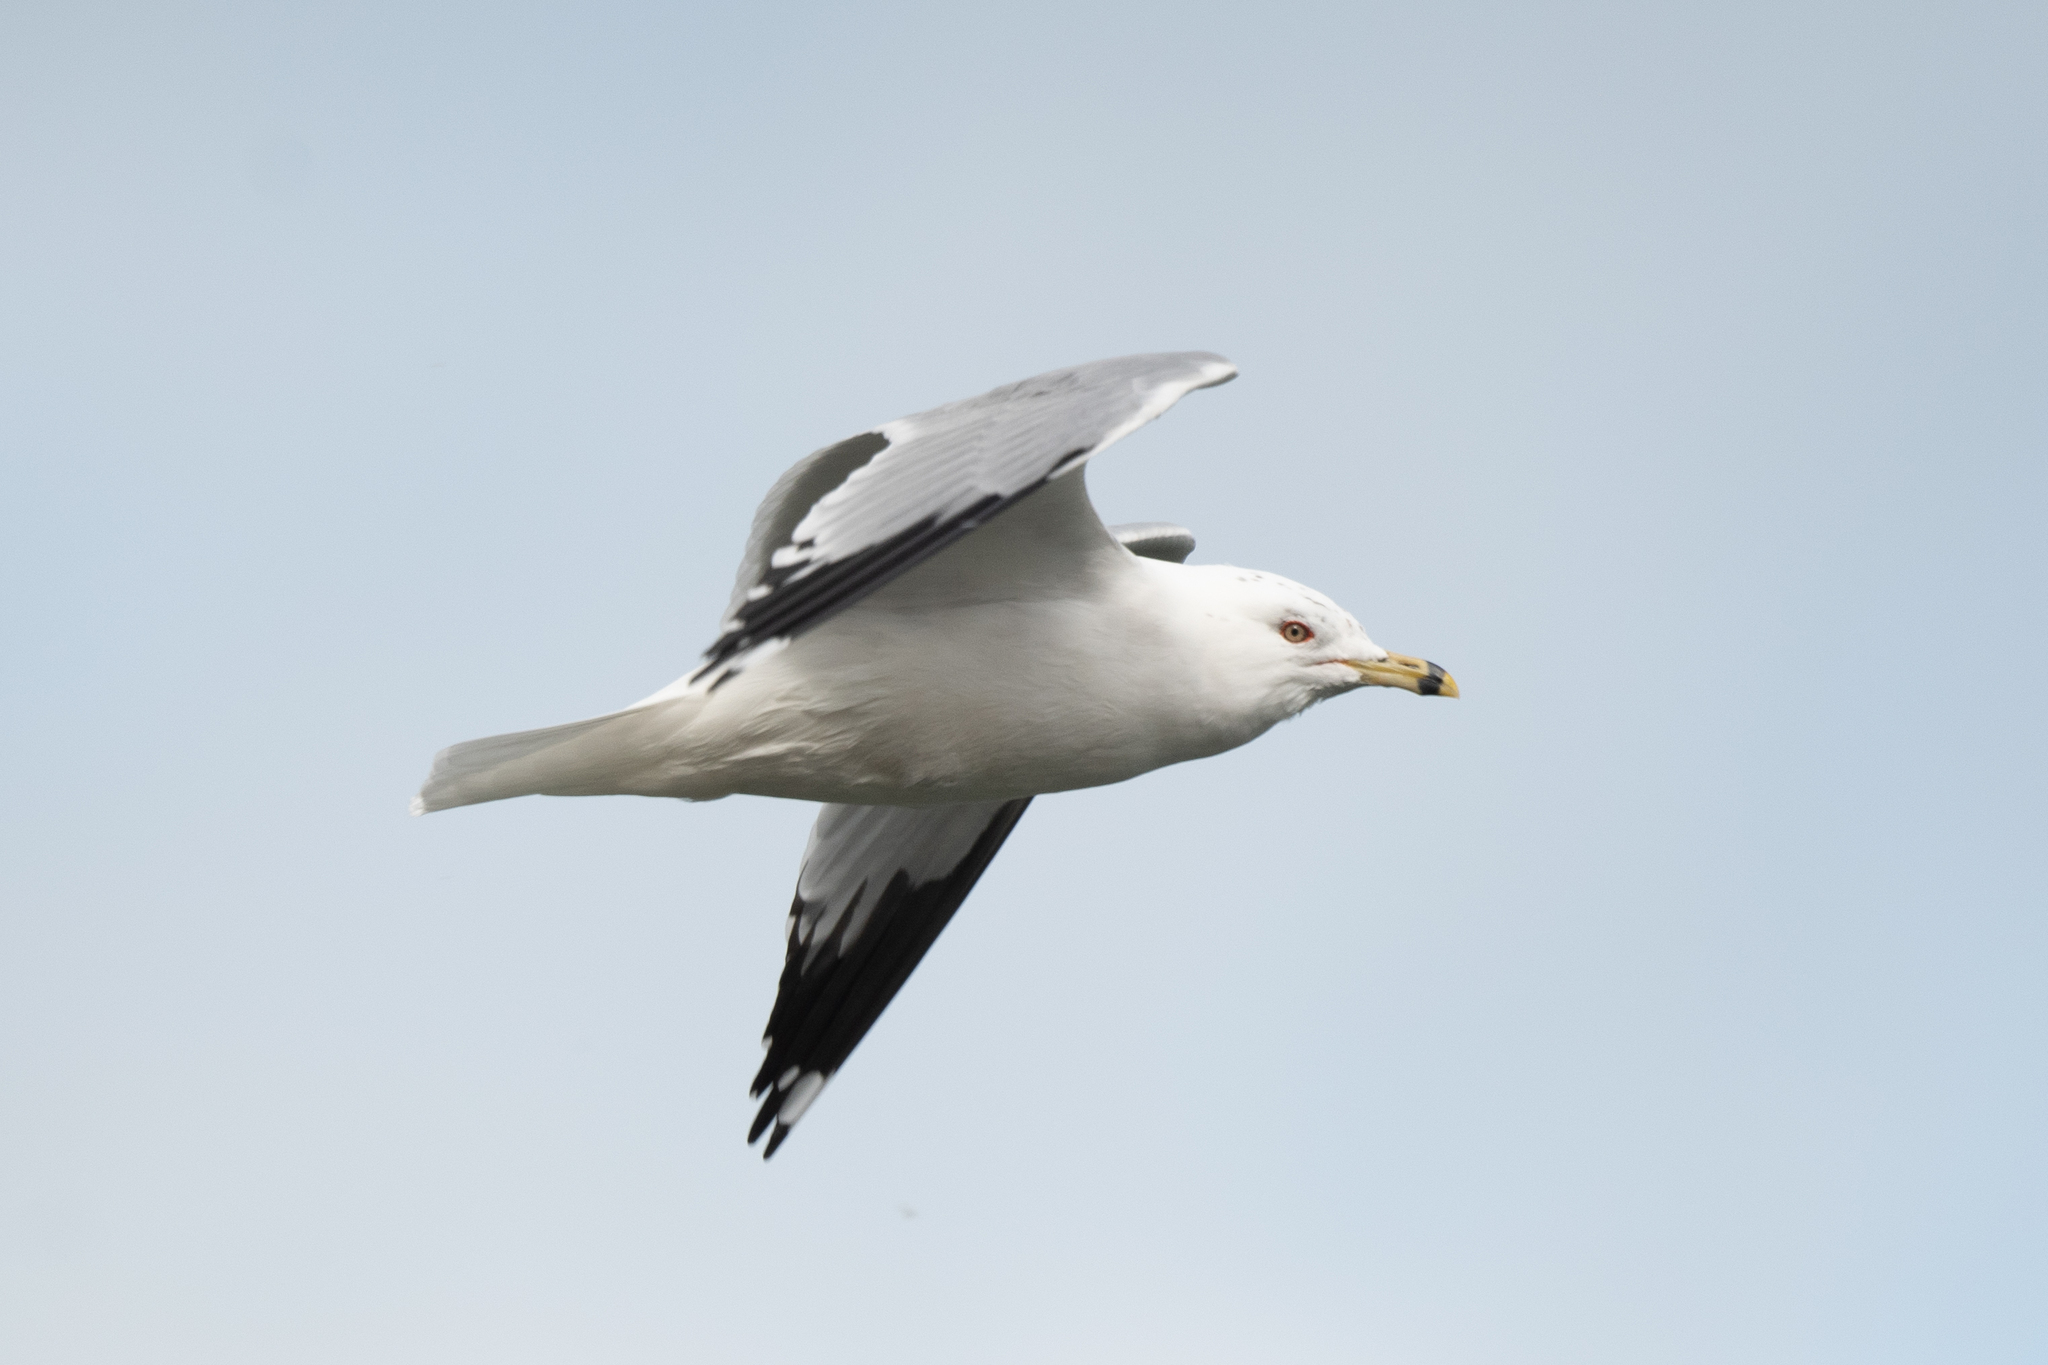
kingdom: Animalia
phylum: Chordata
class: Aves
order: Charadriiformes
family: Laridae
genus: Larus
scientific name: Larus delawarensis
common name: Ring-billed gull
